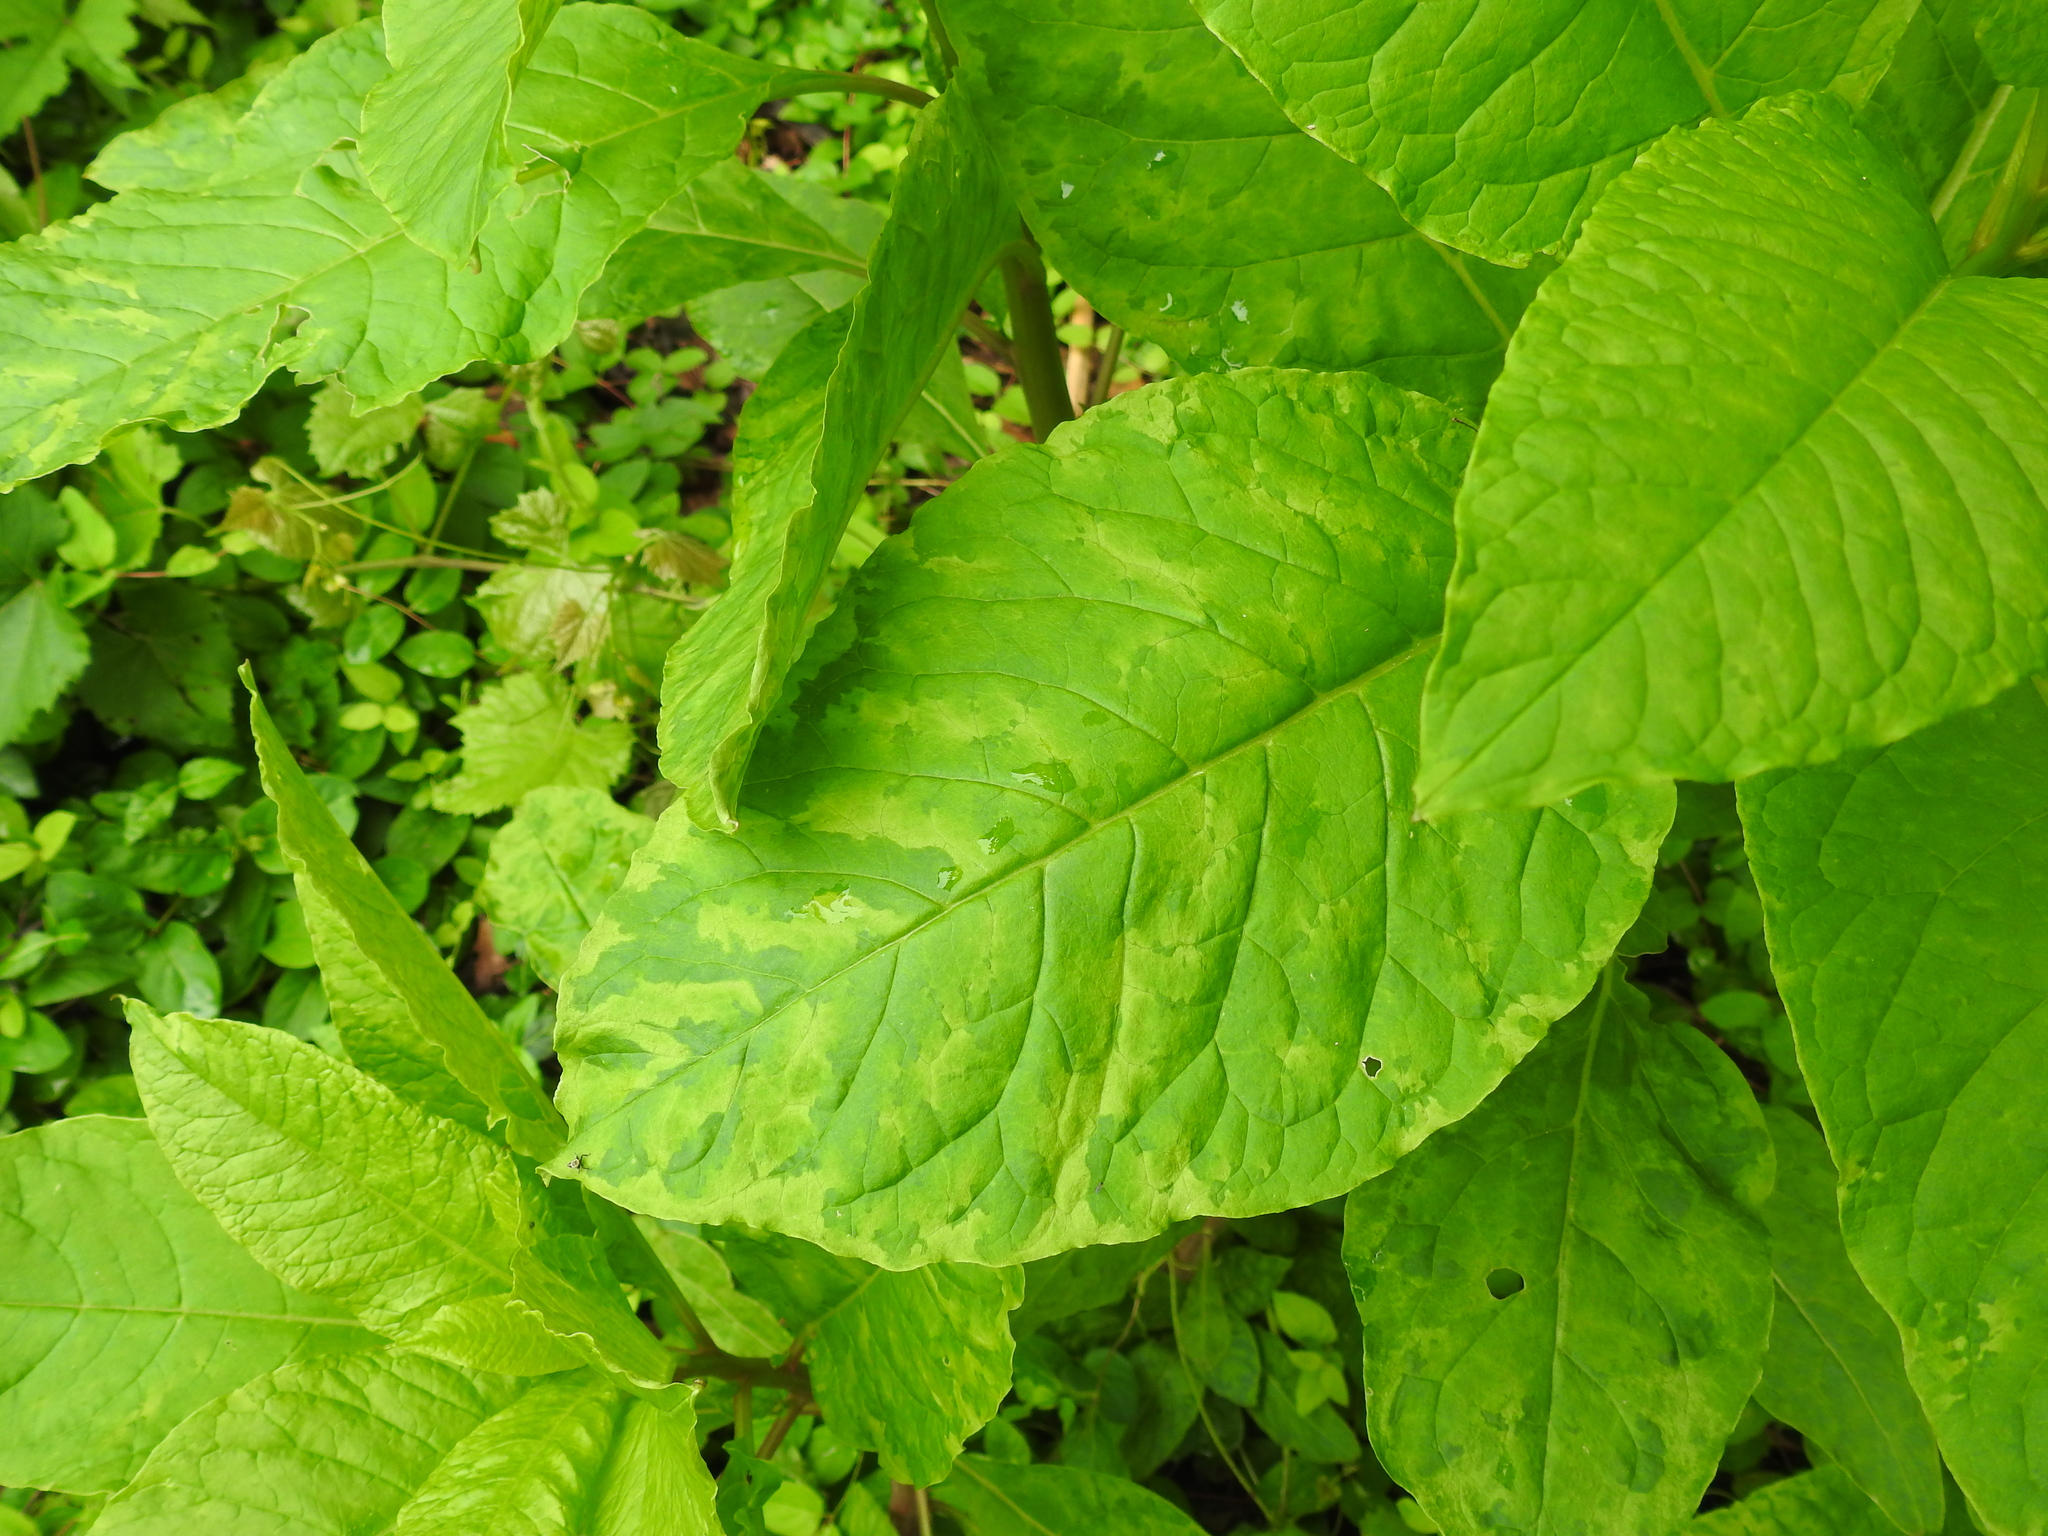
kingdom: Viruses
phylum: Pisuviricota
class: Stelpaviricetes
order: Patatavirales
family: Potyviridae
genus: Potyvirus
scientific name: Potyvirus Pokeweed mosaic virus
